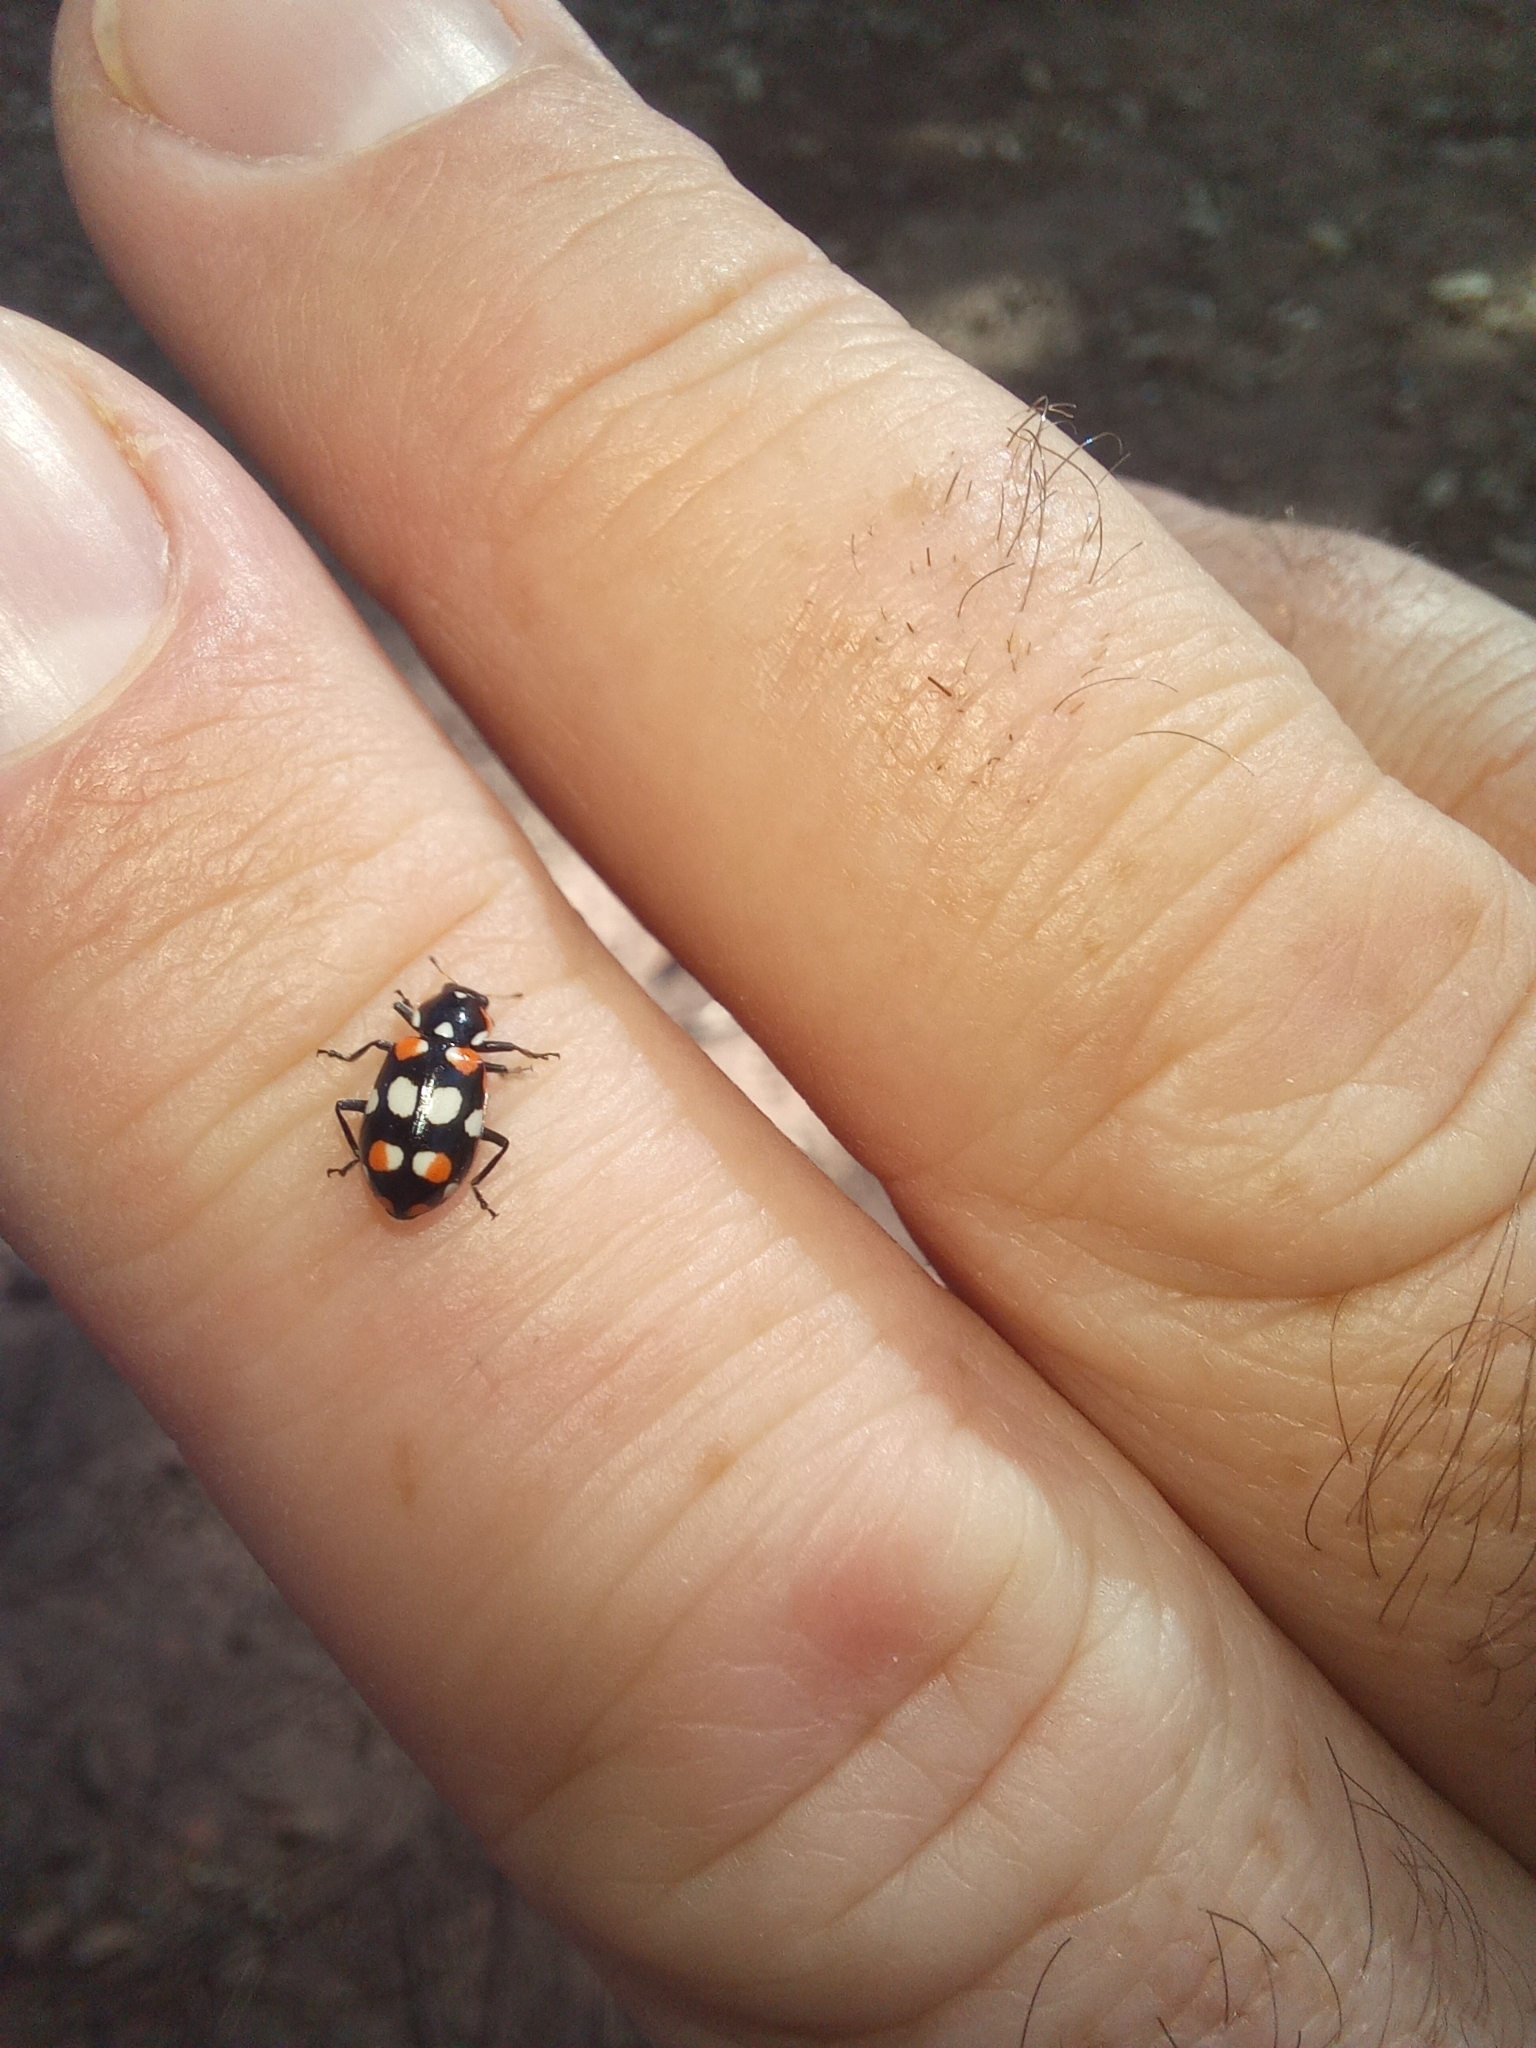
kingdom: Animalia
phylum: Arthropoda
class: Insecta
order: Coleoptera
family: Coccinellidae
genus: Eriopis
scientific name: Eriopis connexa
